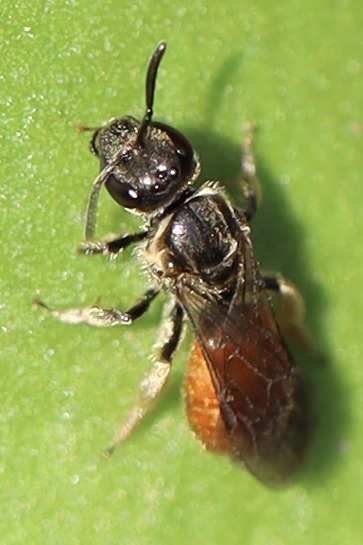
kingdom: Animalia
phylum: Arthropoda
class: Insecta
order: Hymenoptera
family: Halictidae
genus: Lasioglossum
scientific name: Lasioglossum ovaliceps
